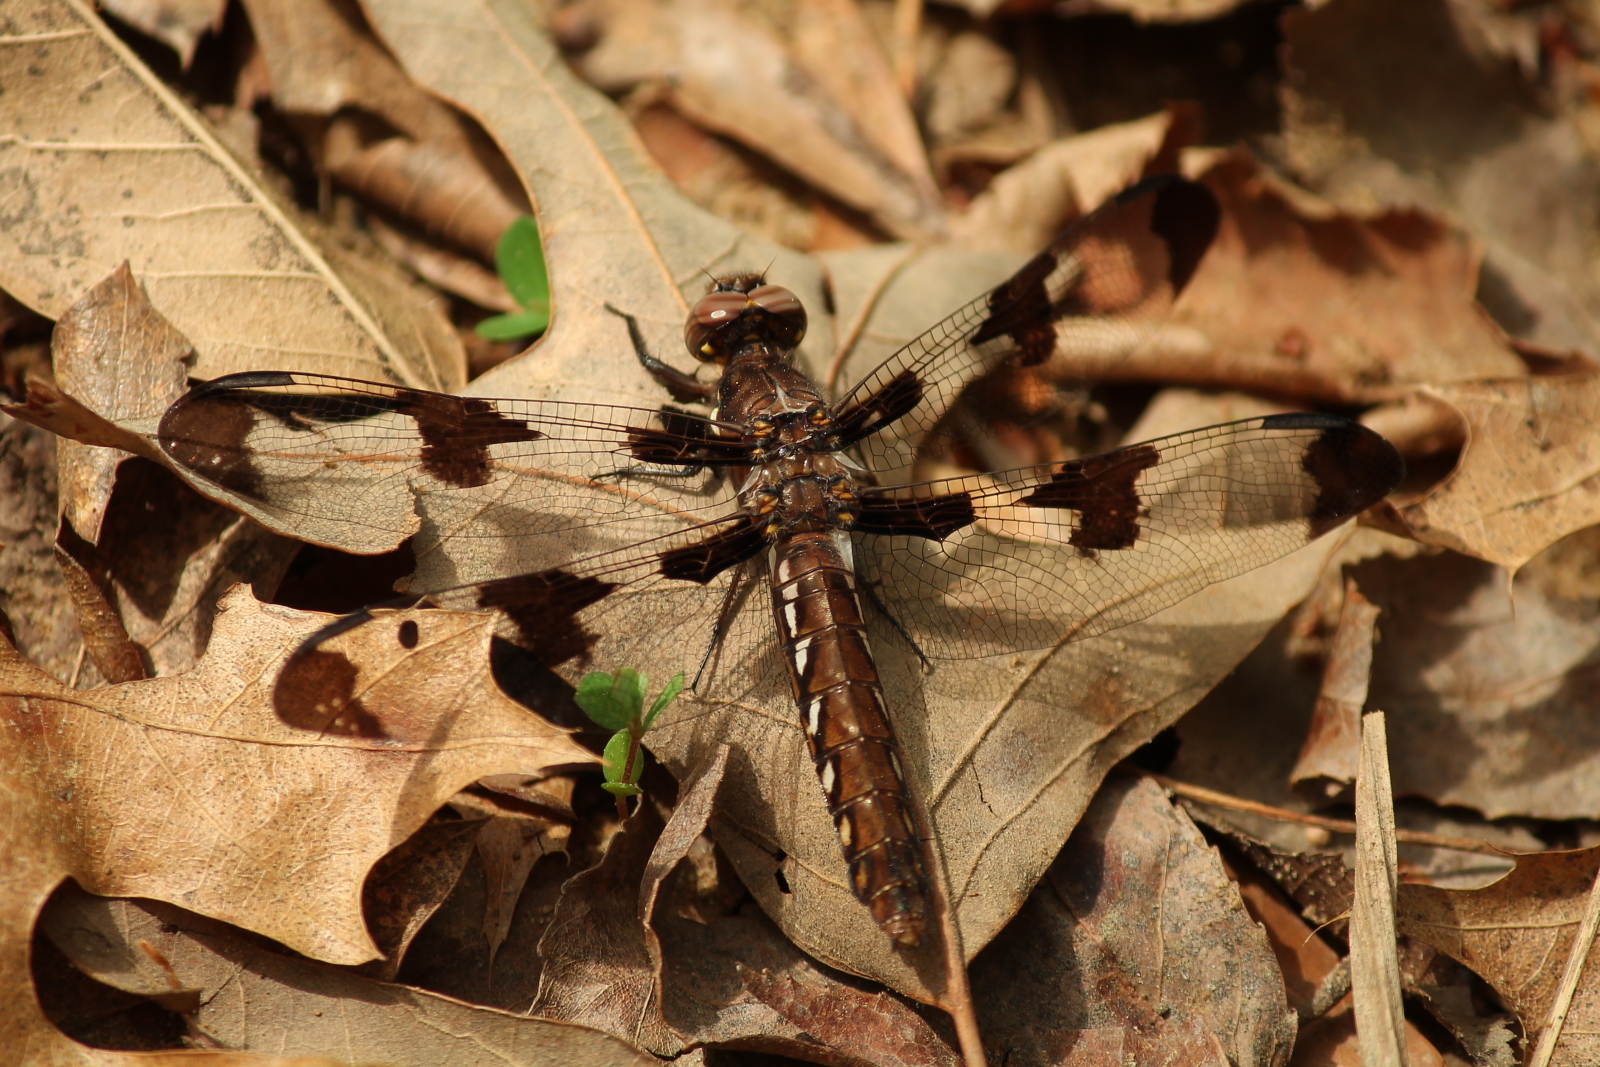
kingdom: Animalia
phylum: Arthropoda
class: Insecta
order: Odonata
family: Libellulidae
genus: Plathemis
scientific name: Plathemis lydia
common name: Common whitetail
